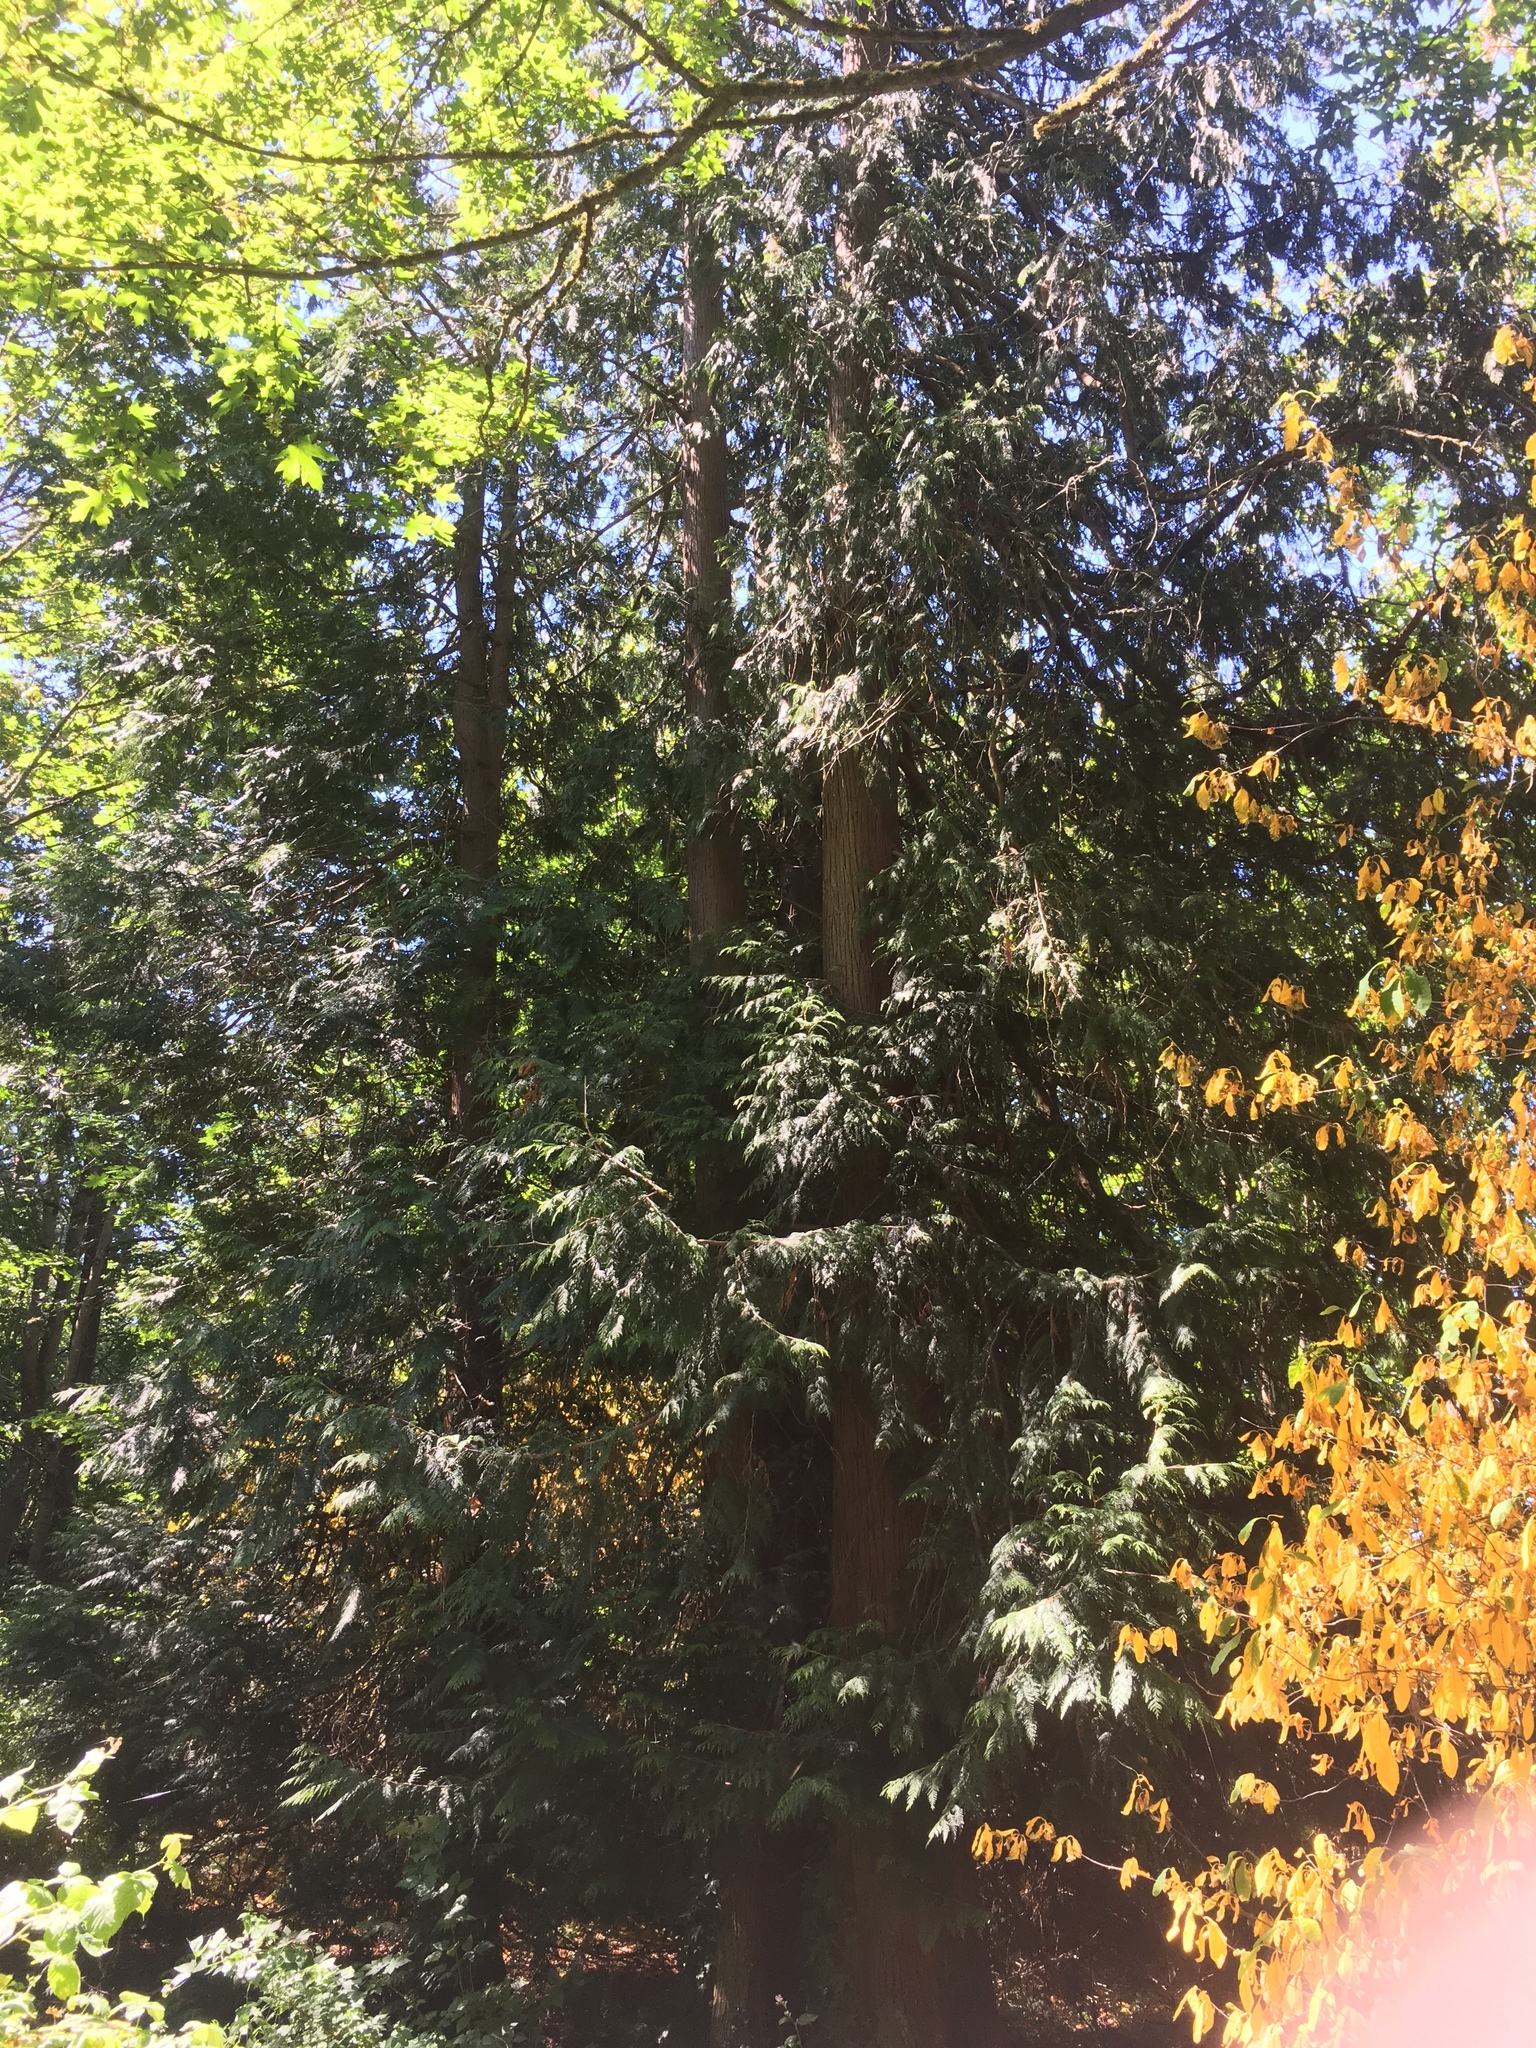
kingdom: Plantae
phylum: Tracheophyta
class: Pinopsida
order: Pinales
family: Cupressaceae
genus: Thuja
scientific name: Thuja plicata
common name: Western red-cedar
